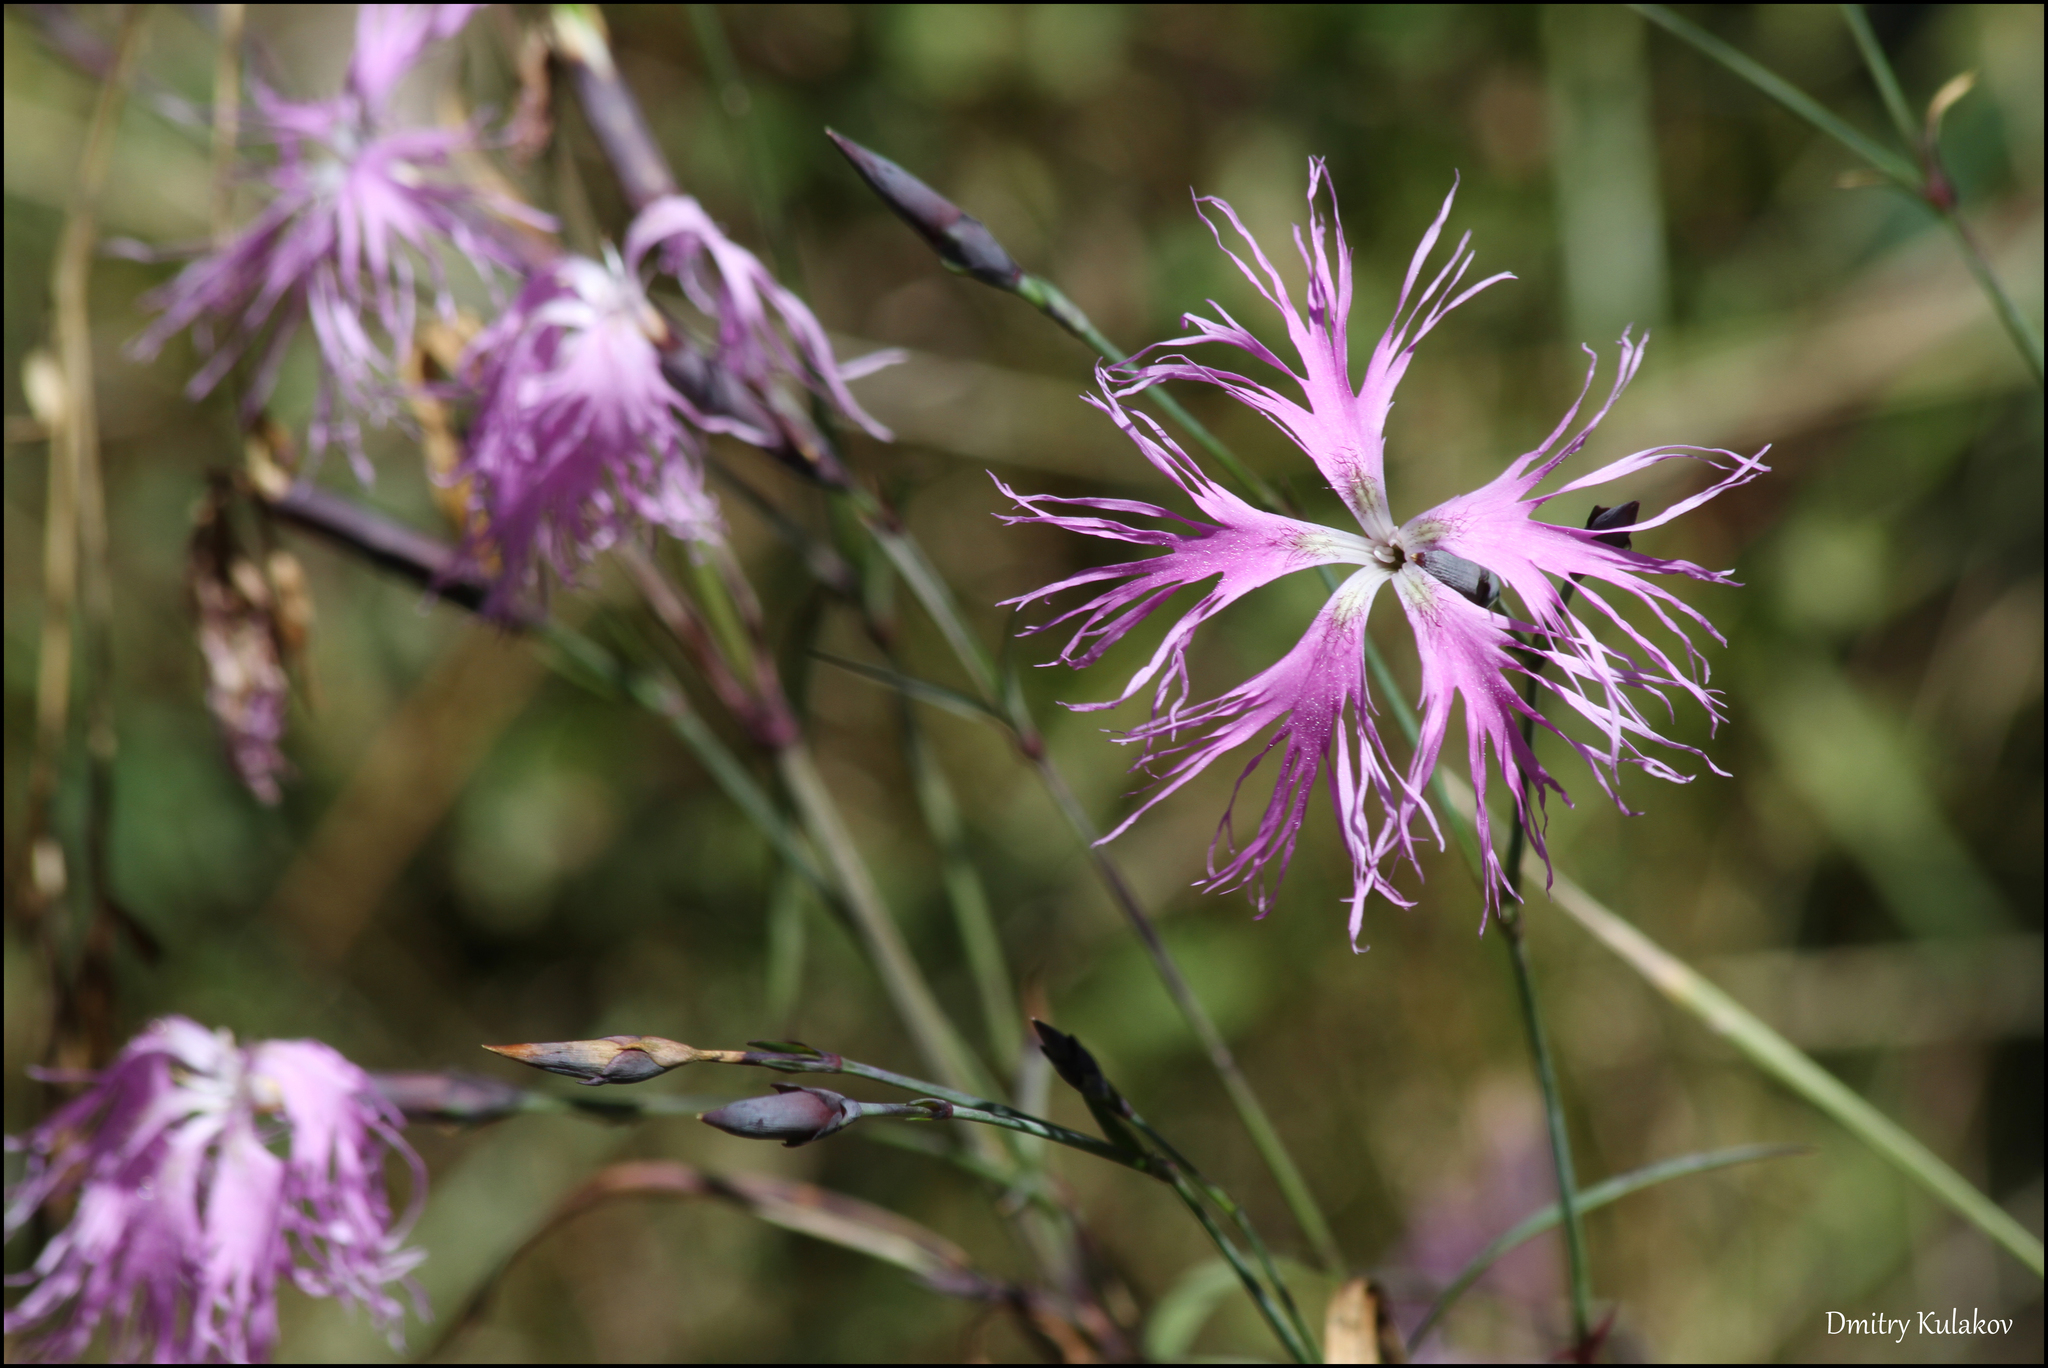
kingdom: Plantae
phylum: Tracheophyta
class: Magnoliopsida
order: Caryophyllales
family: Caryophyllaceae
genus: Dianthus
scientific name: Dianthus superbus
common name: Fringed pink
